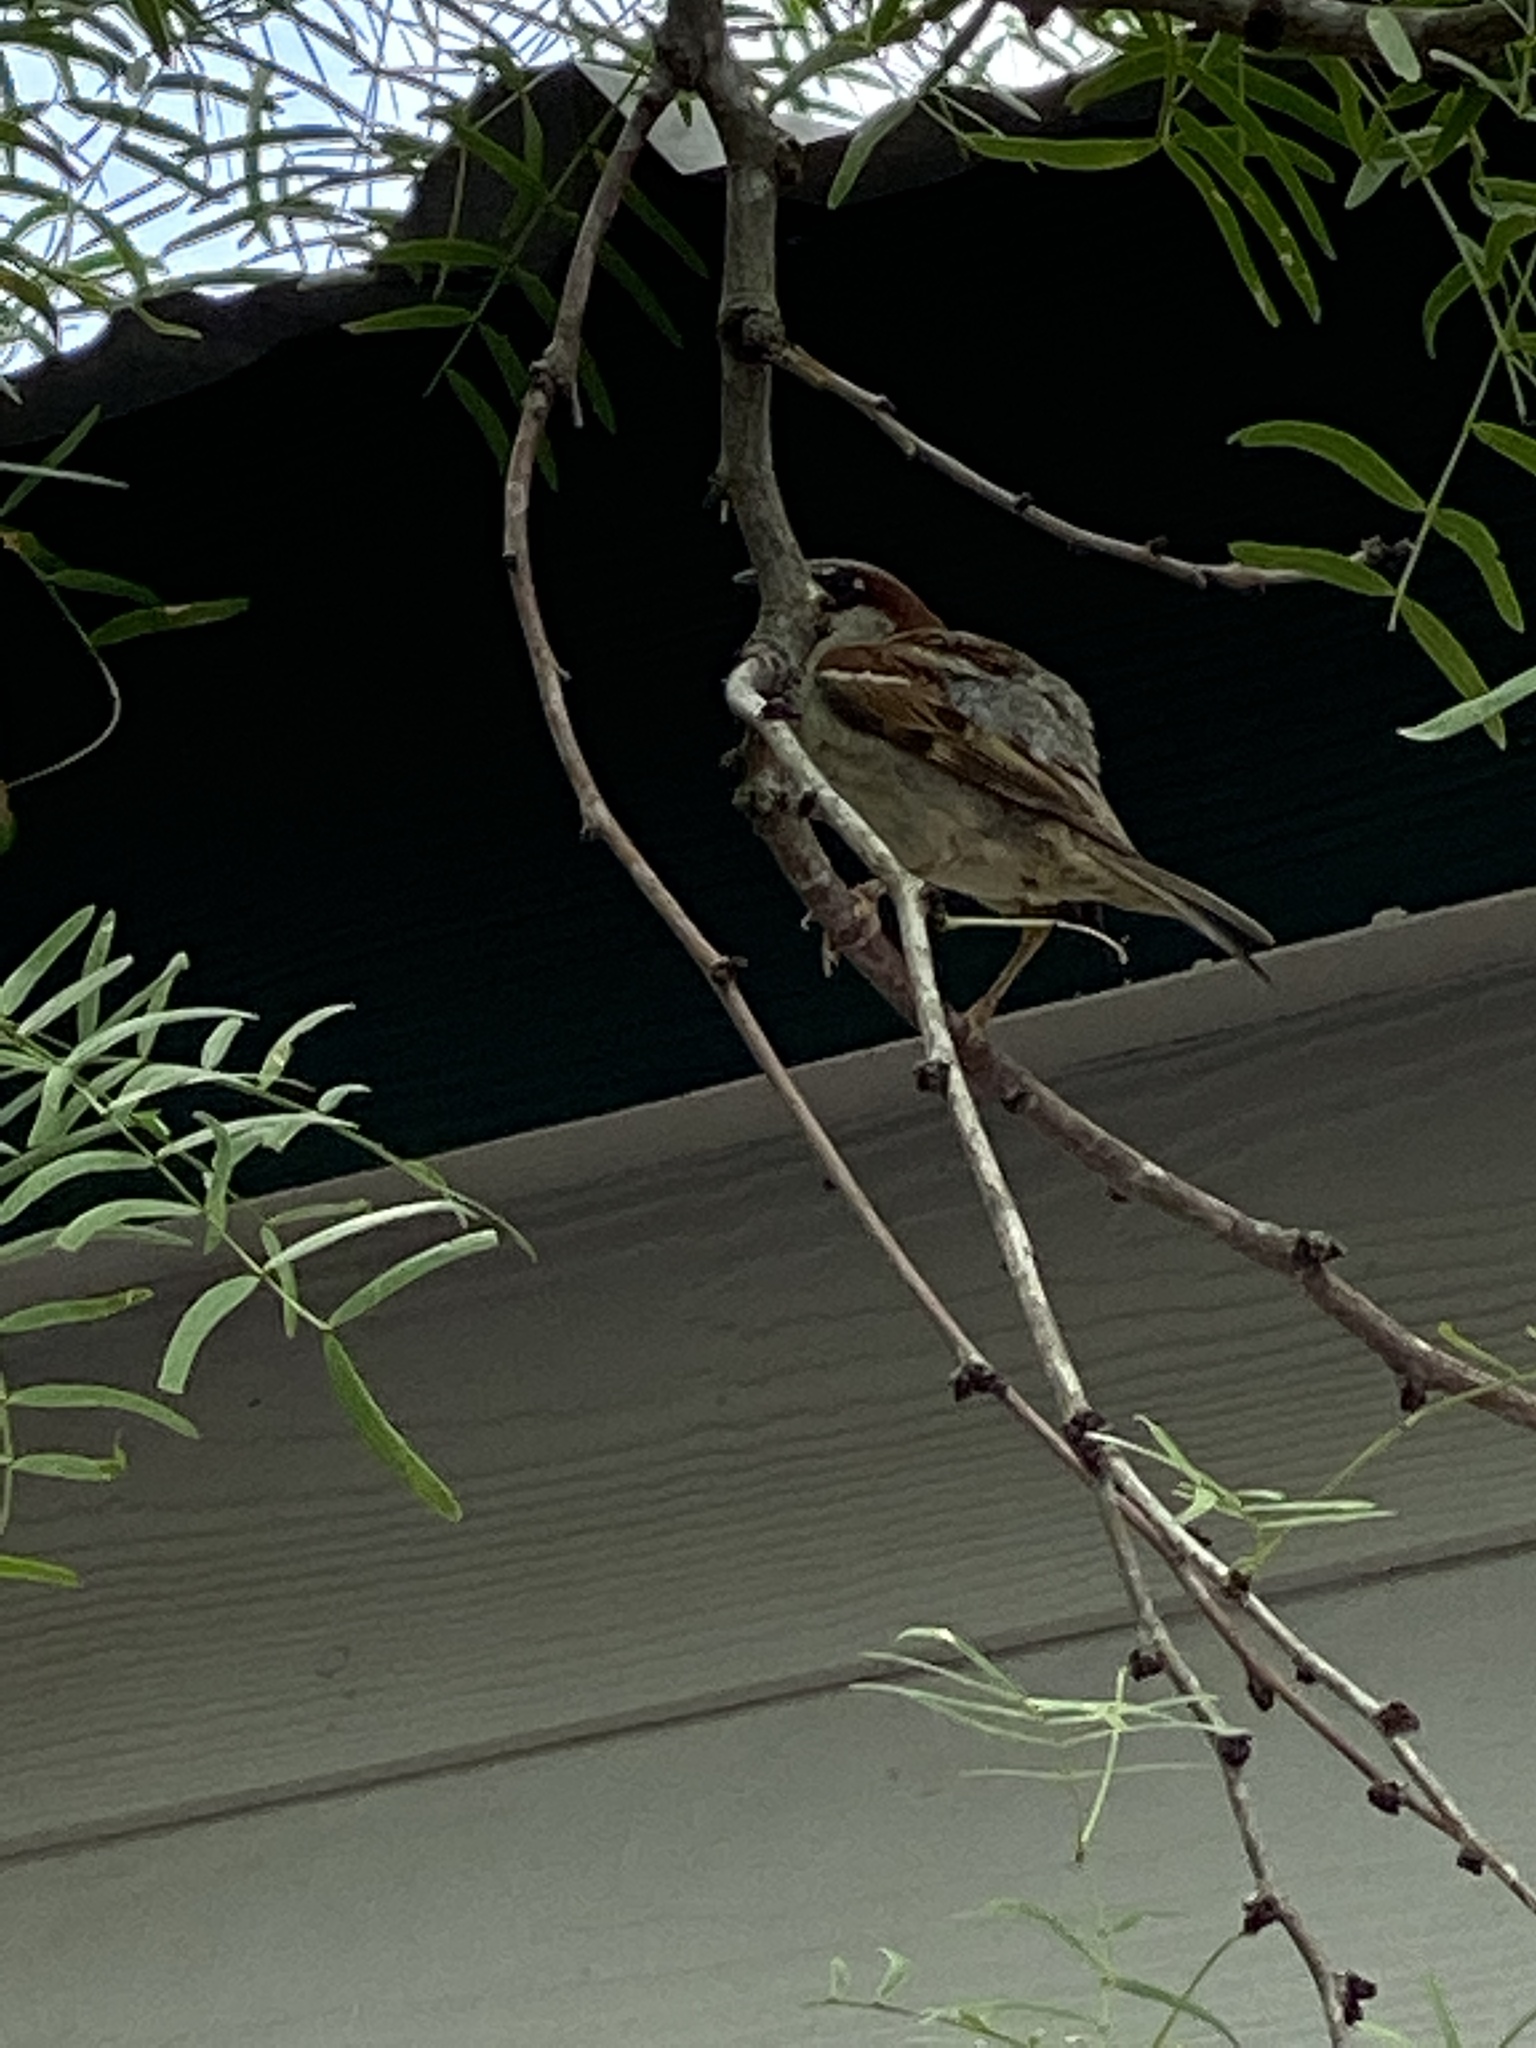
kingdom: Animalia
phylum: Chordata
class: Aves
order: Passeriformes
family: Passeridae
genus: Passer
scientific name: Passer domesticus
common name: House sparrow
